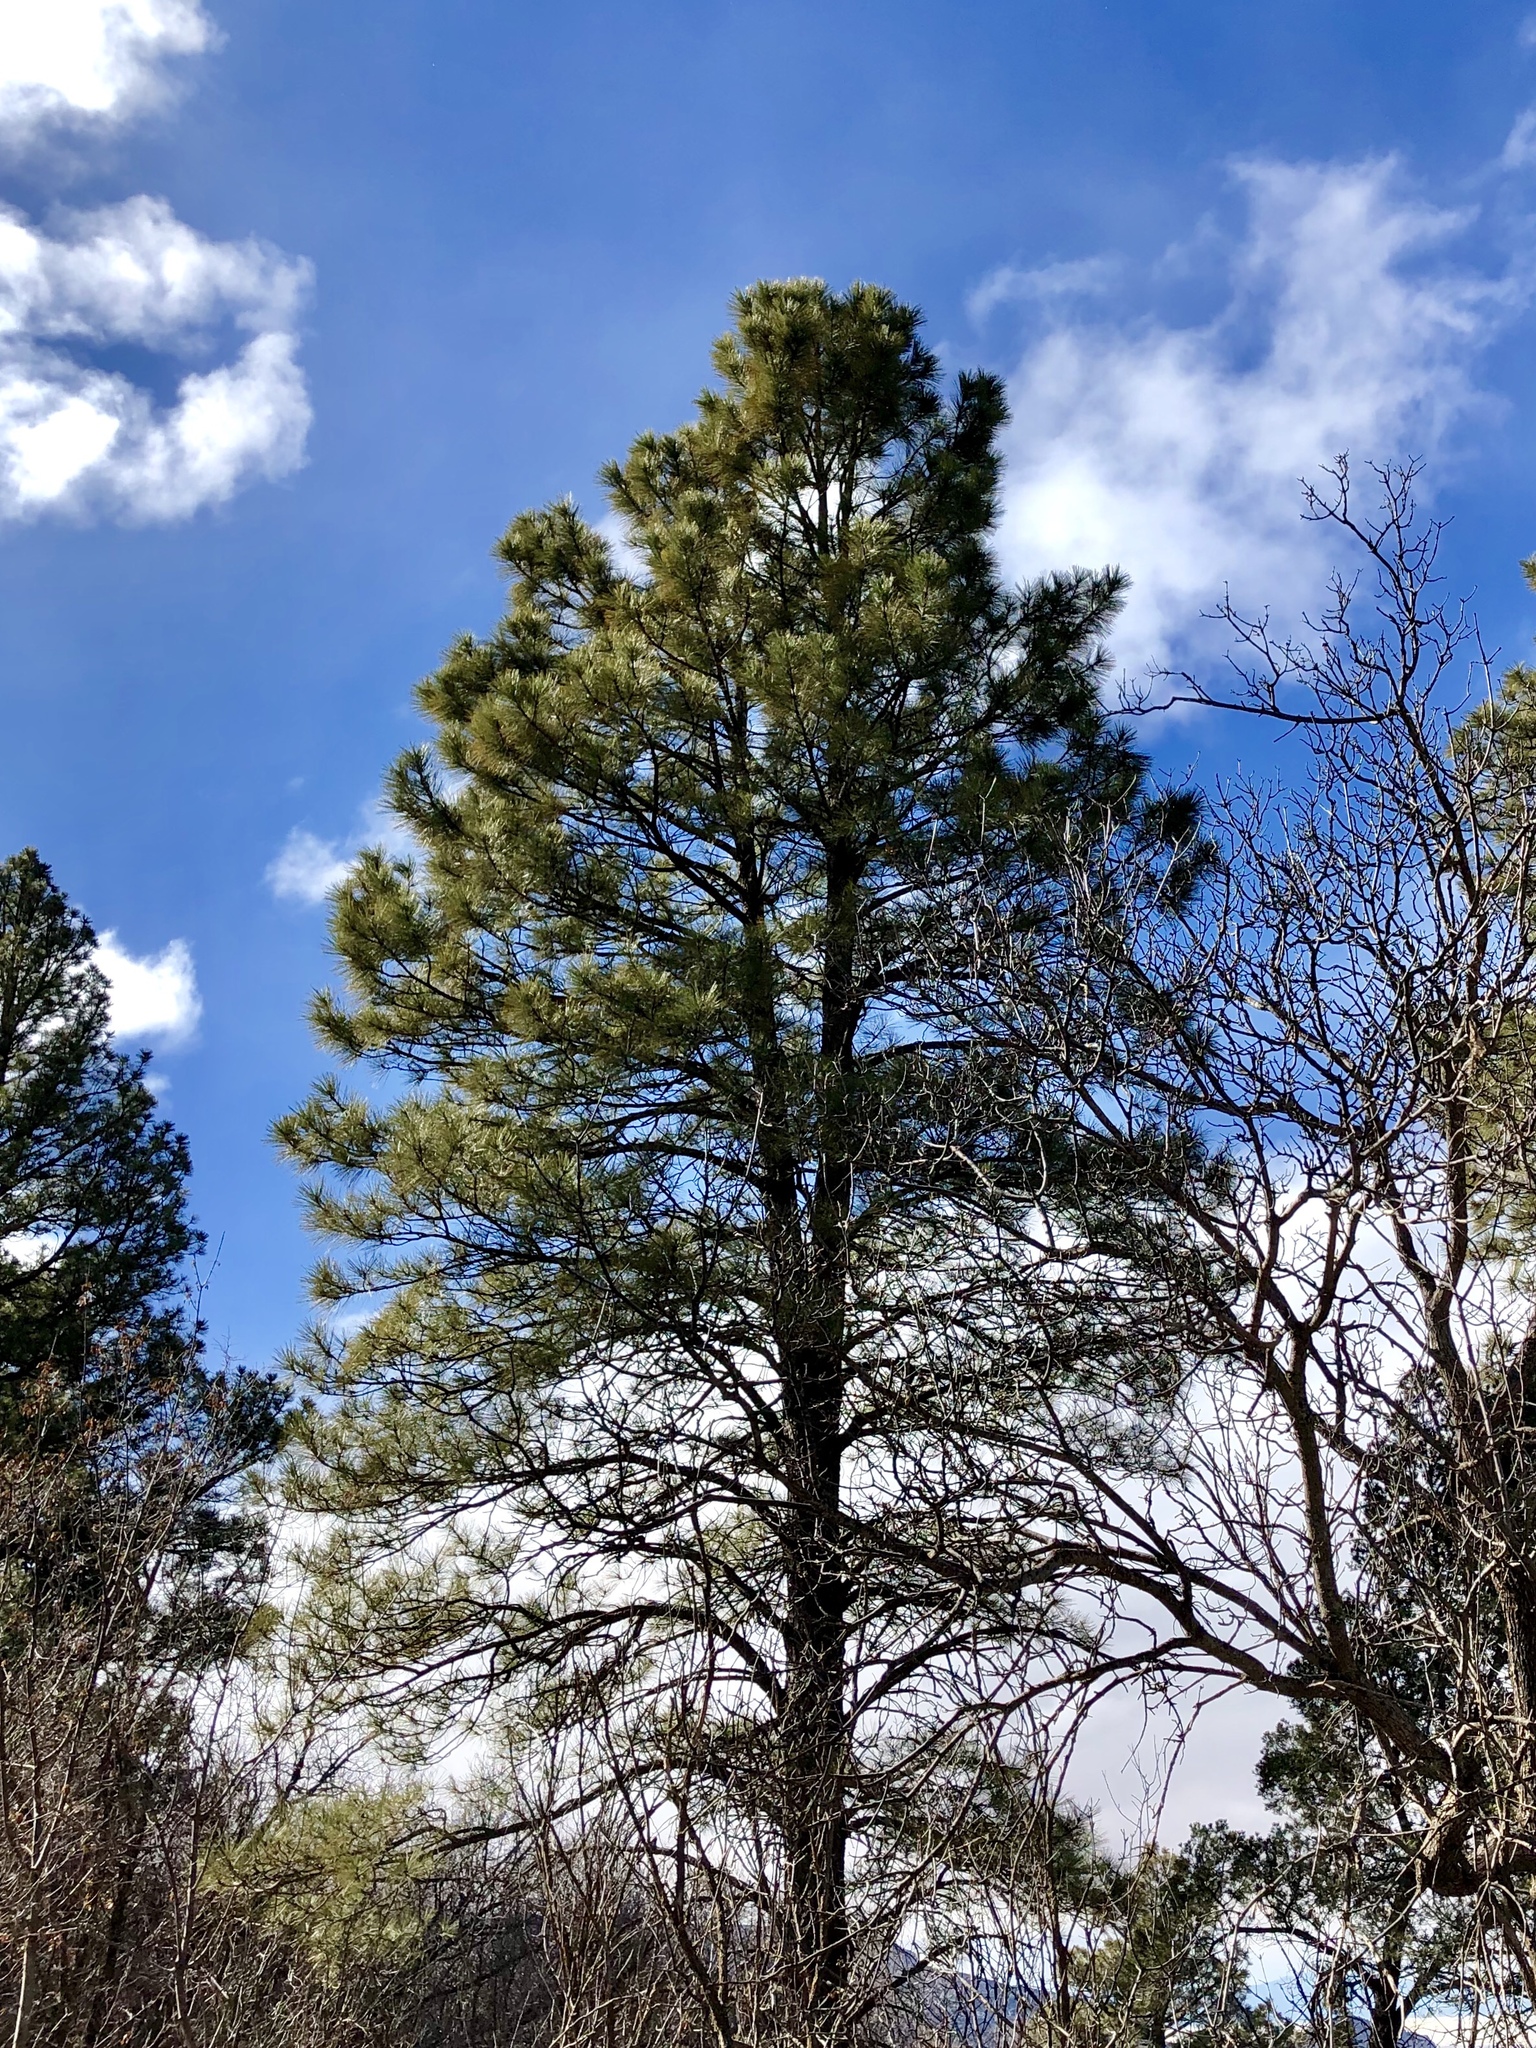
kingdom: Plantae
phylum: Tracheophyta
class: Pinopsida
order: Pinales
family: Pinaceae
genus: Pinus
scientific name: Pinus ponderosa
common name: Western yellow-pine
